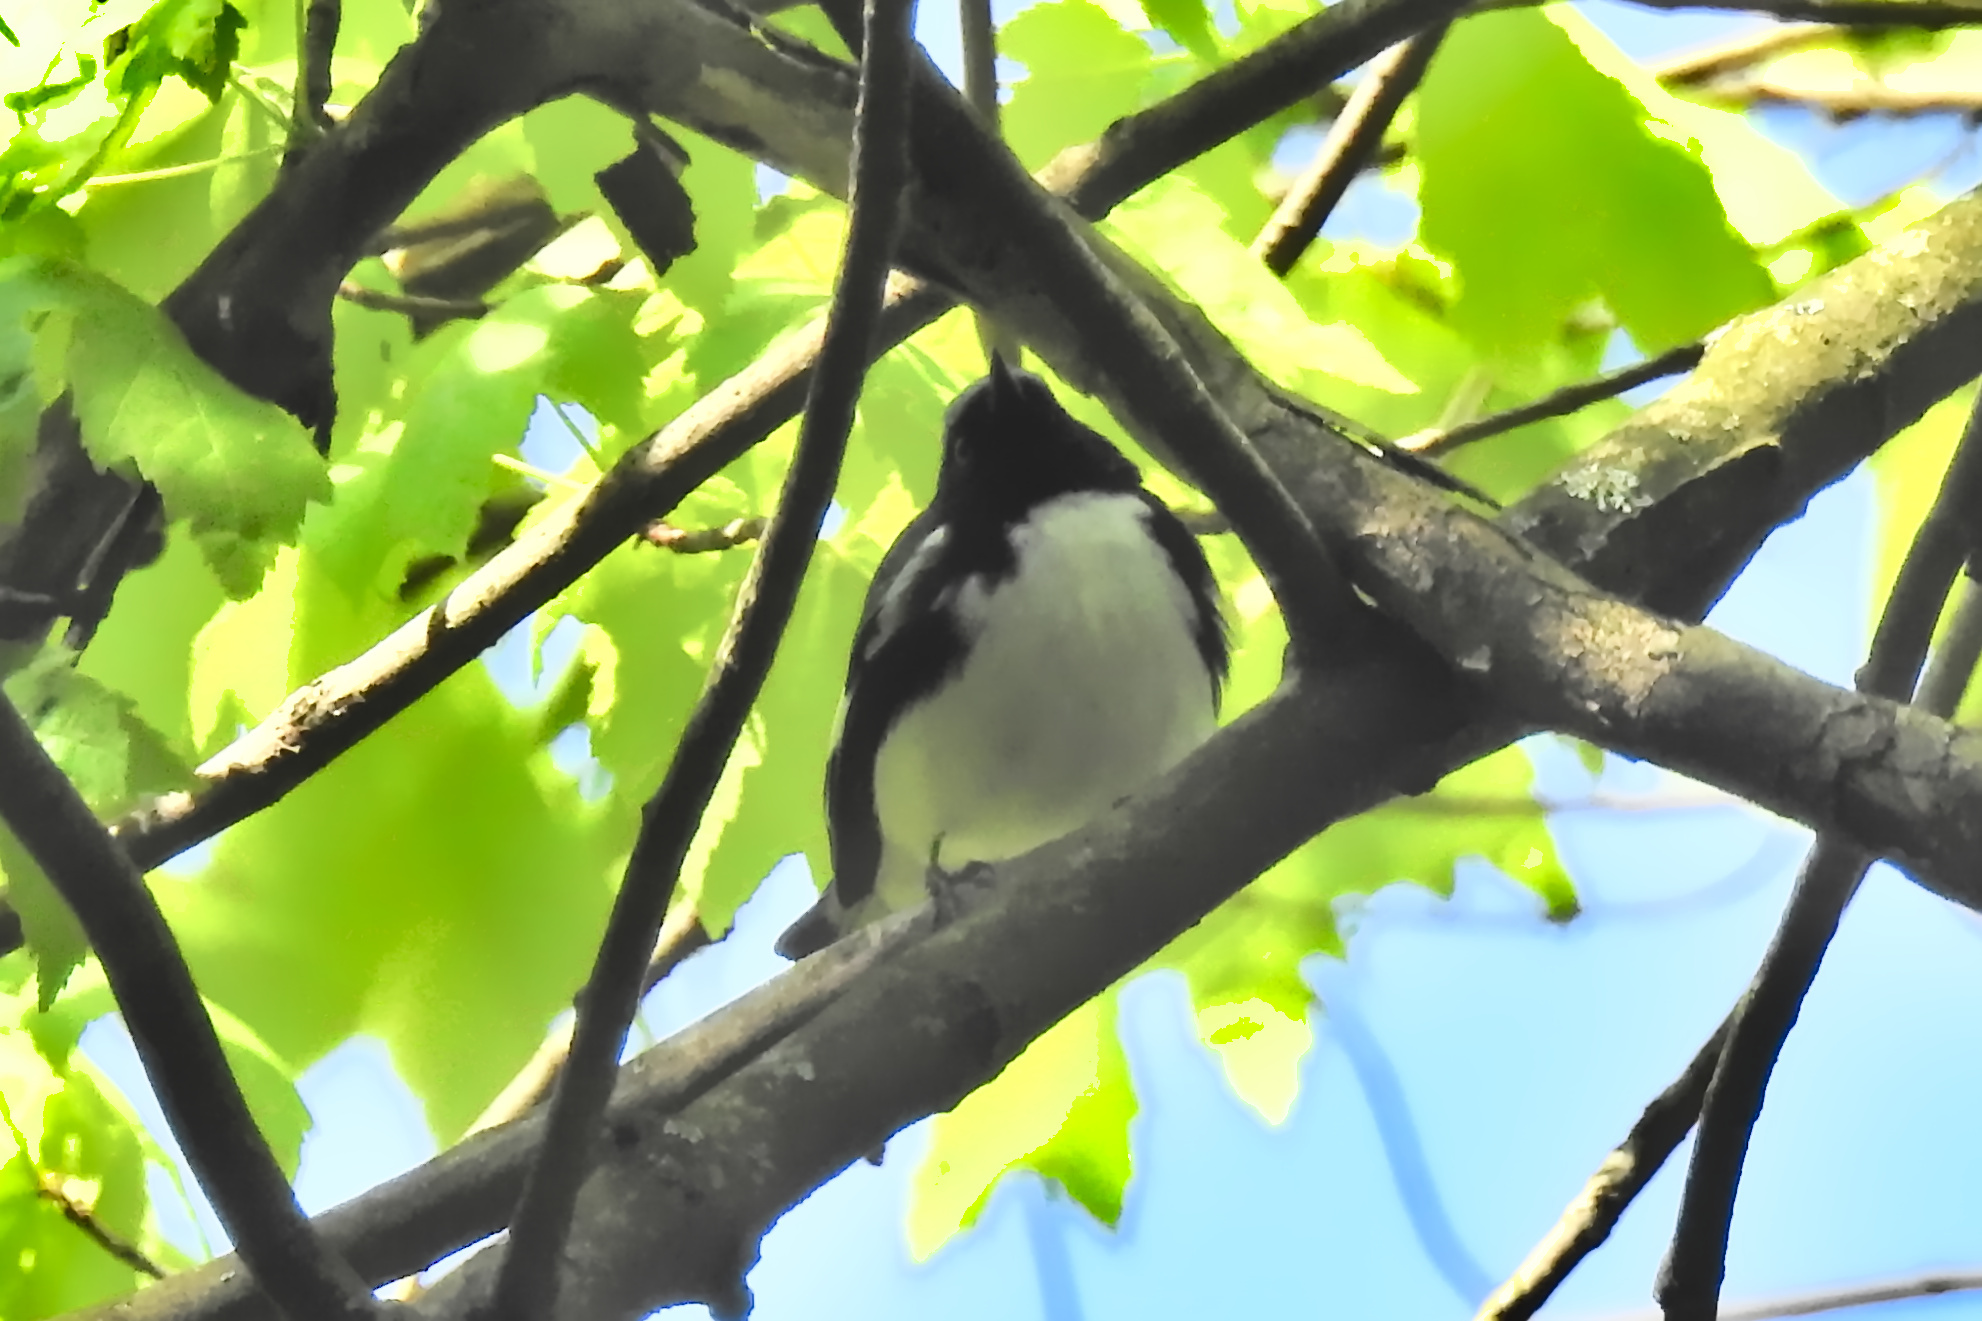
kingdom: Animalia
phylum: Chordata
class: Aves
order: Passeriformes
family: Parulidae
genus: Setophaga
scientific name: Setophaga caerulescens
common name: Black-throated blue warbler
